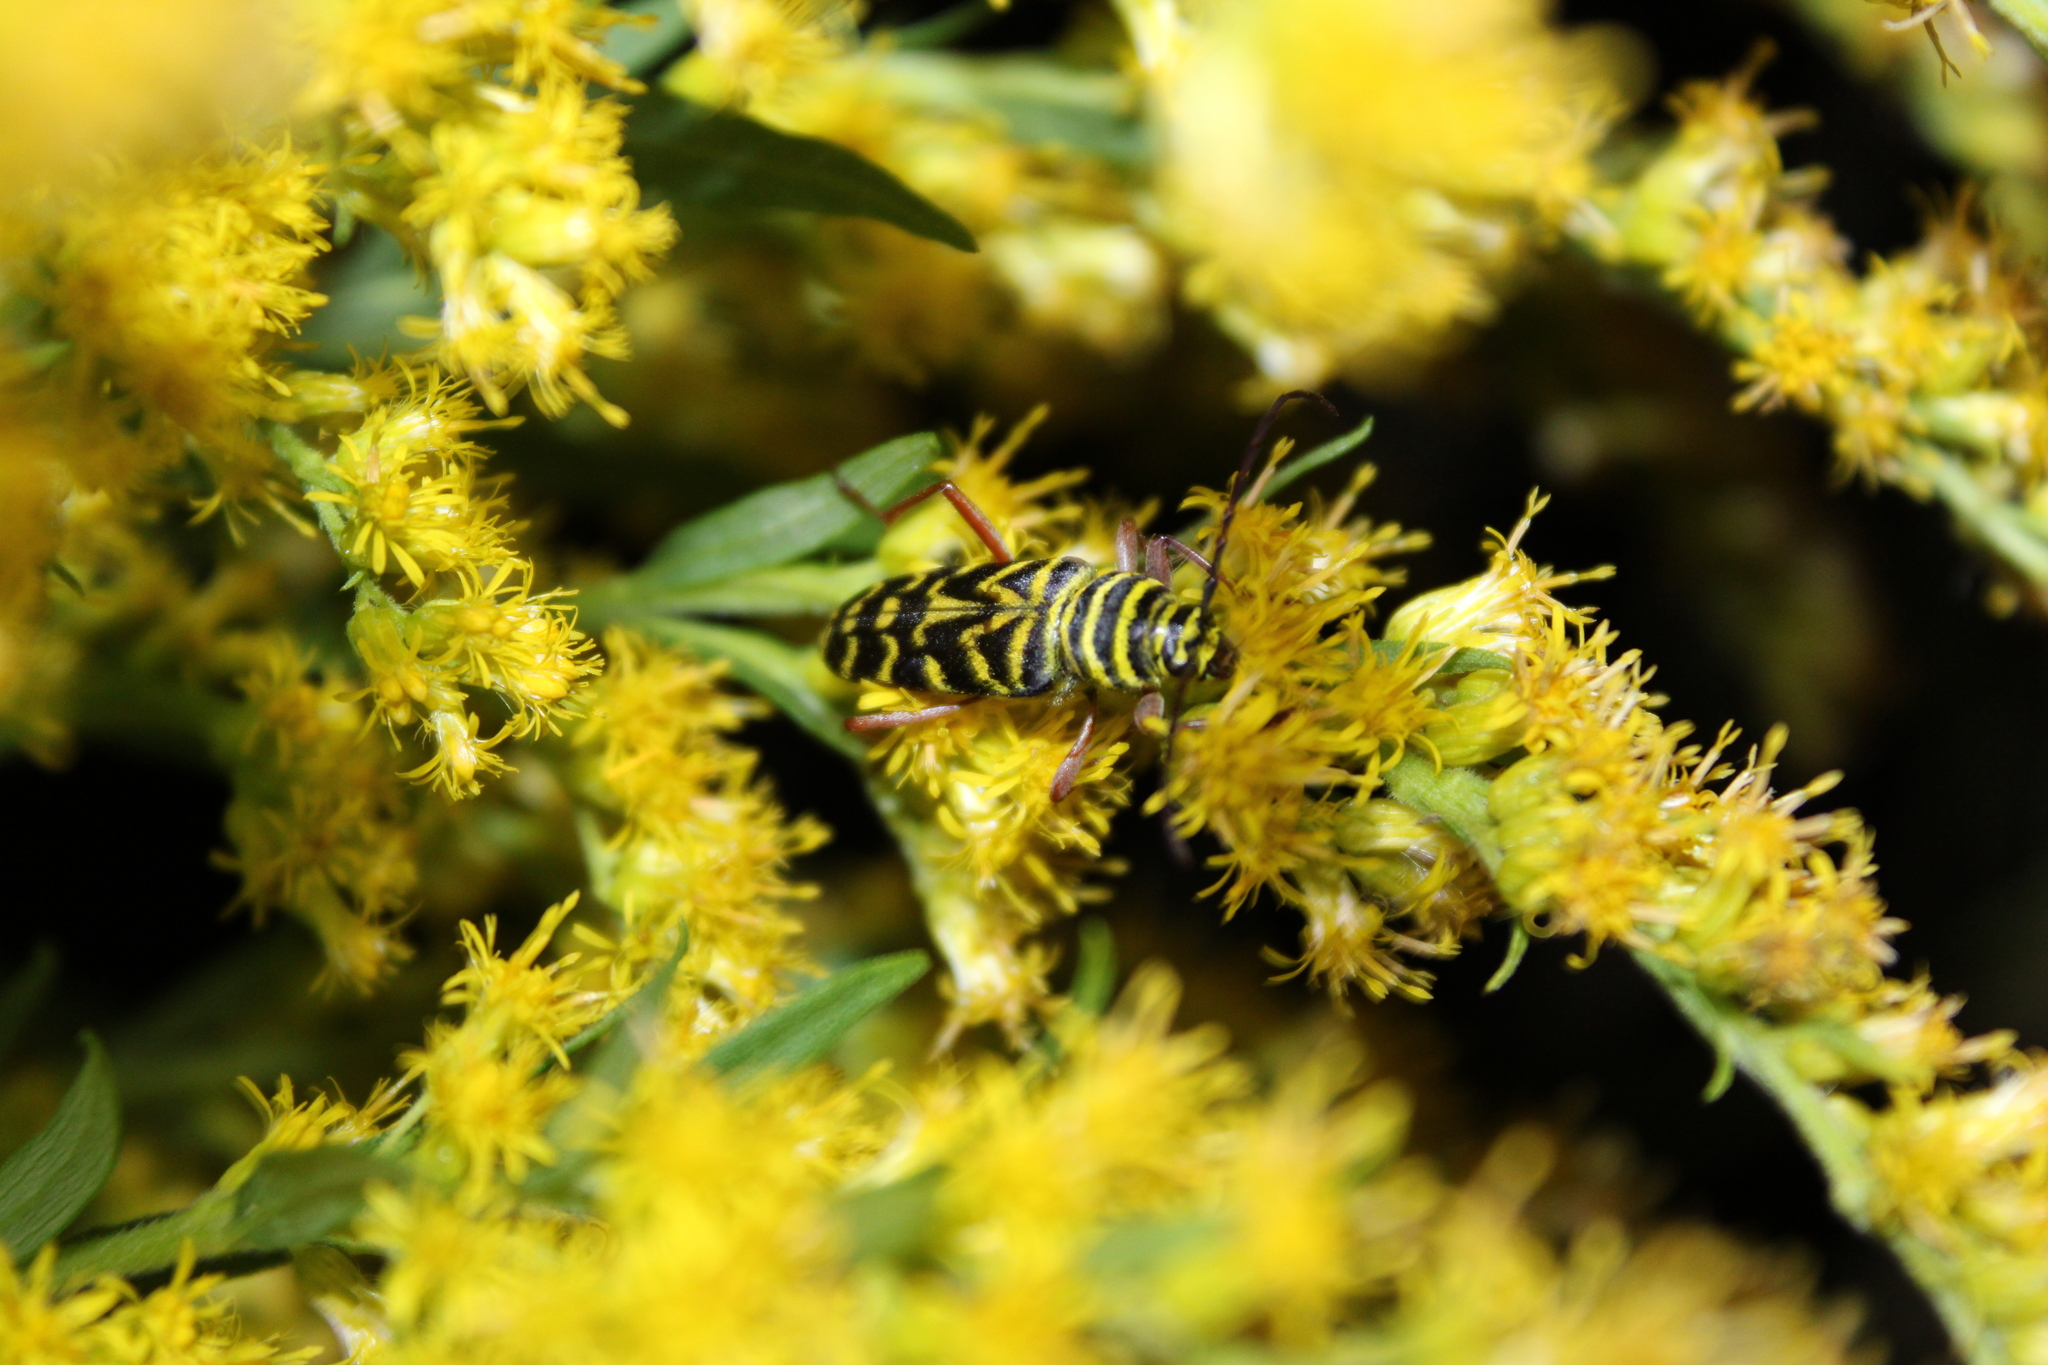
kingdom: Animalia
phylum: Arthropoda
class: Insecta
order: Coleoptera
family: Cerambycidae
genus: Megacyllene
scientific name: Megacyllene robiniae
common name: Locust borer
